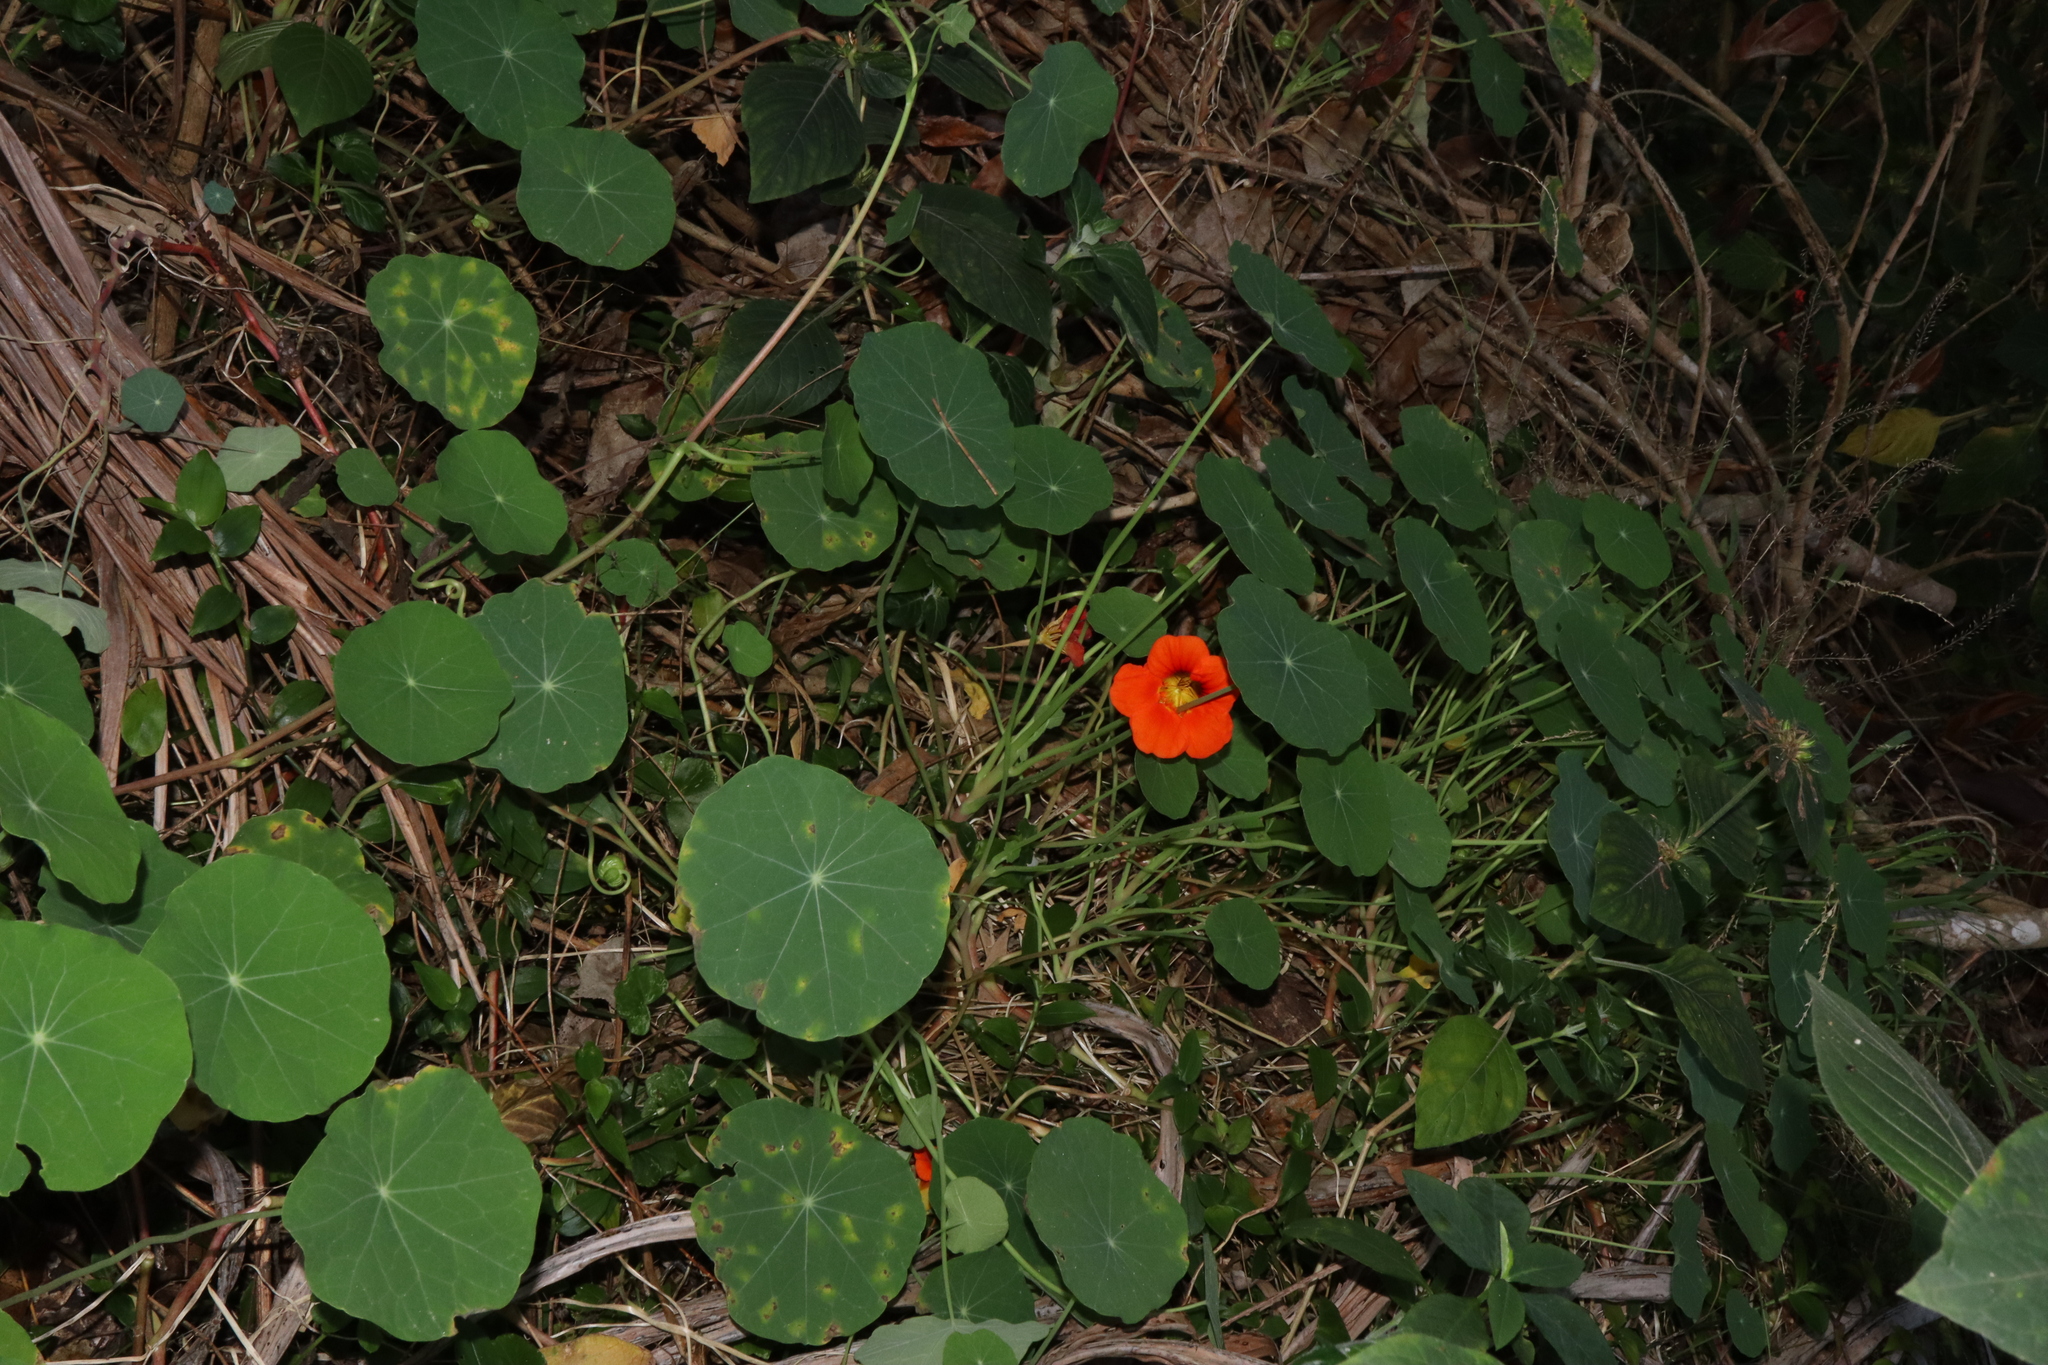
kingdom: Plantae
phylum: Tracheophyta
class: Magnoliopsida
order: Brassicales
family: Tropaeolaceae
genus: Tropaeolum
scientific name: Tropaeolum majus
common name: Nasturtium
